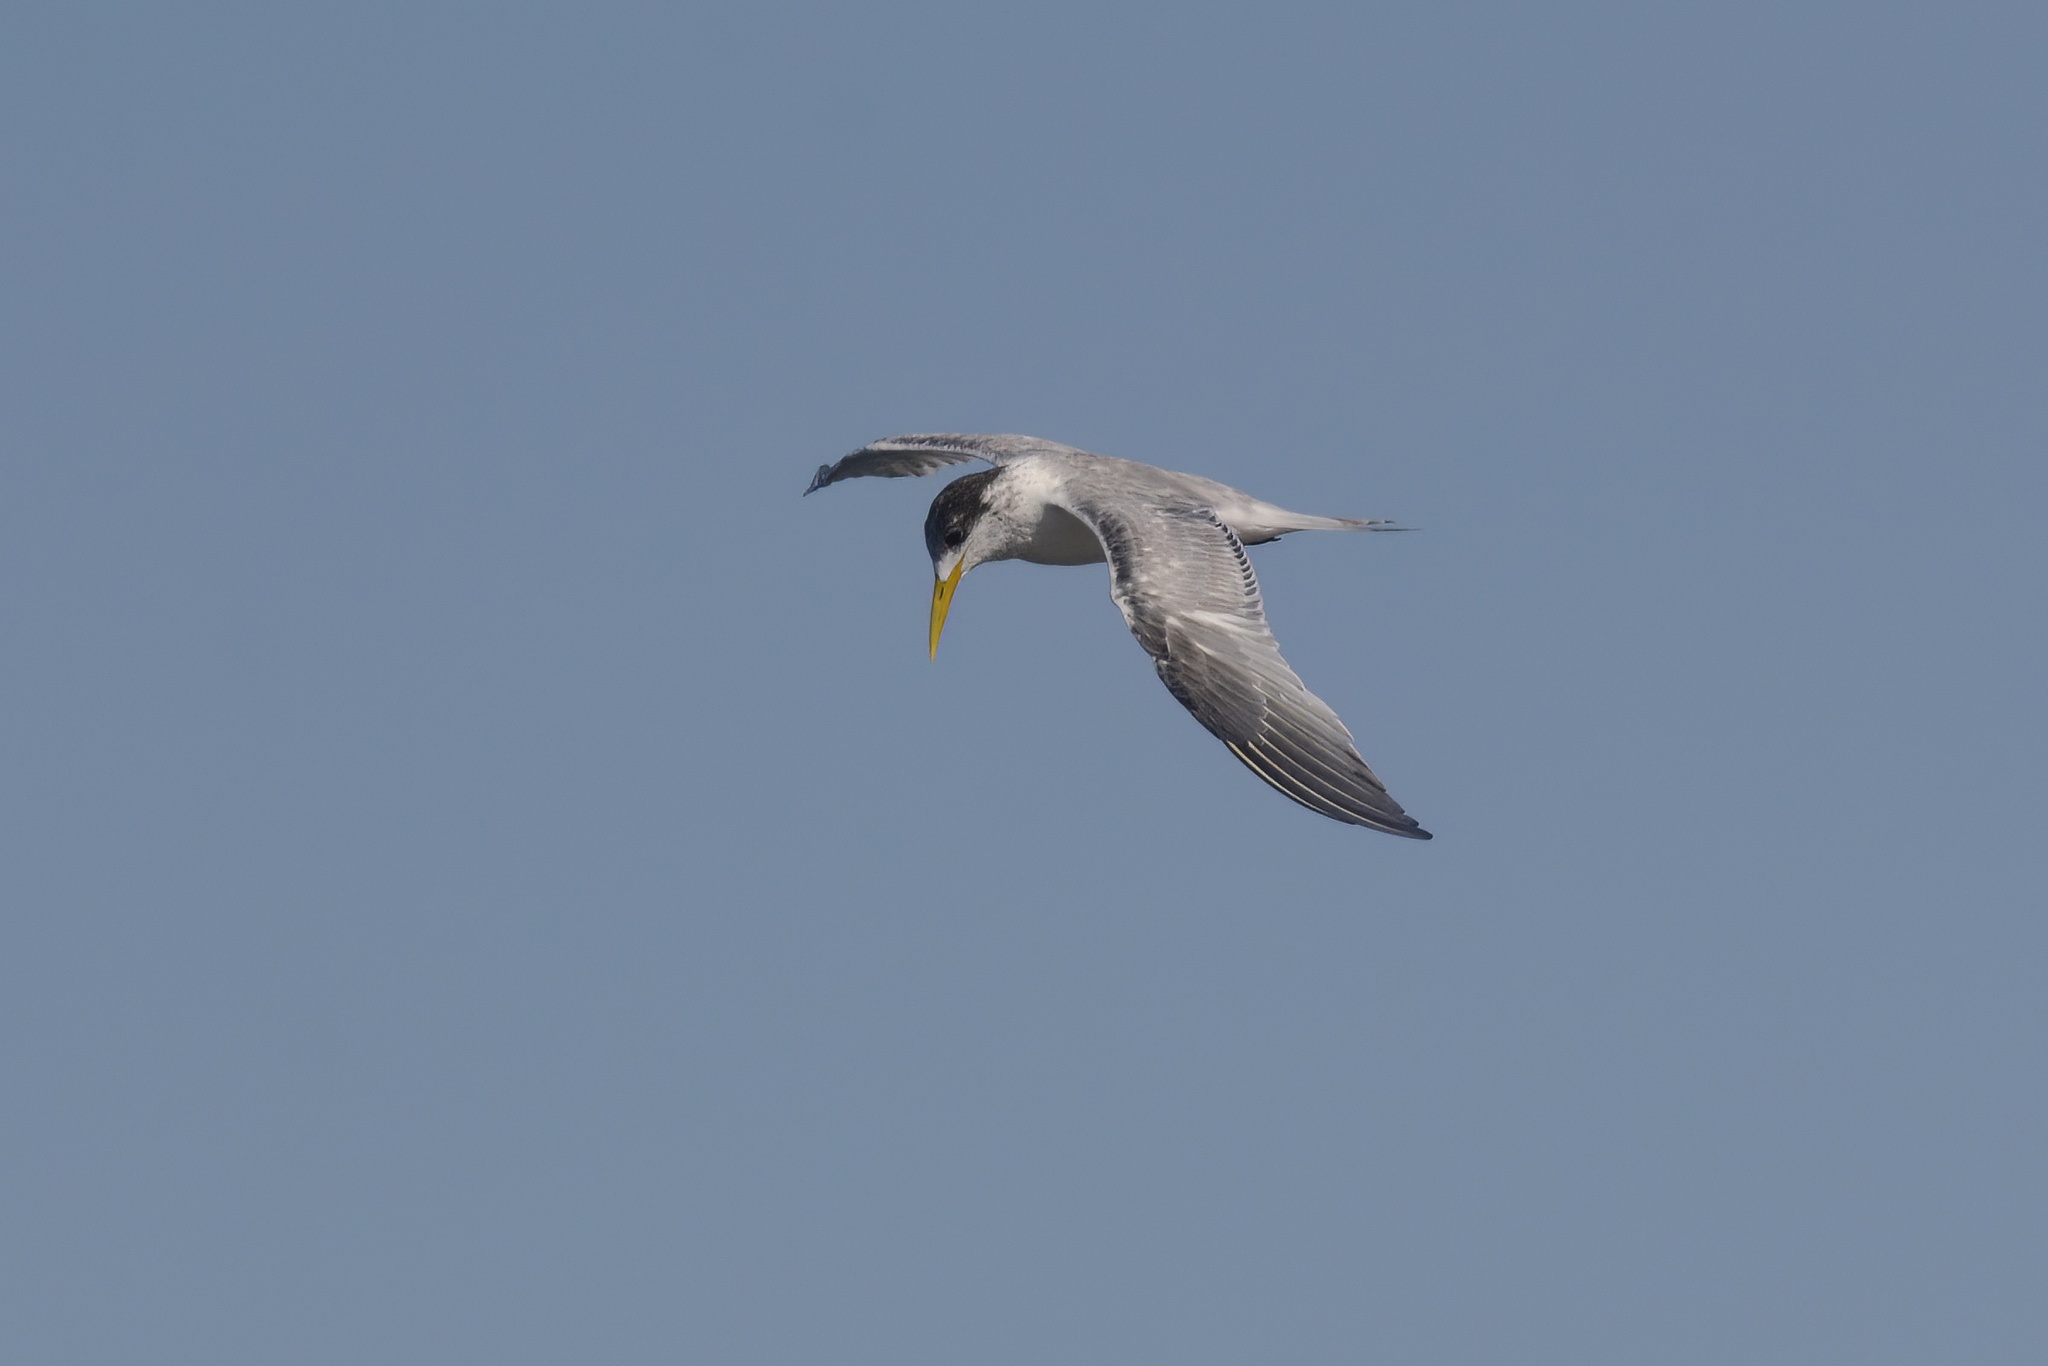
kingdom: Animalia
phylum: Chordata
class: Aves
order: Charadriiformes
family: Laridae
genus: Thalasseus
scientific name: Thalasseus bergii
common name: Greater crested tern
